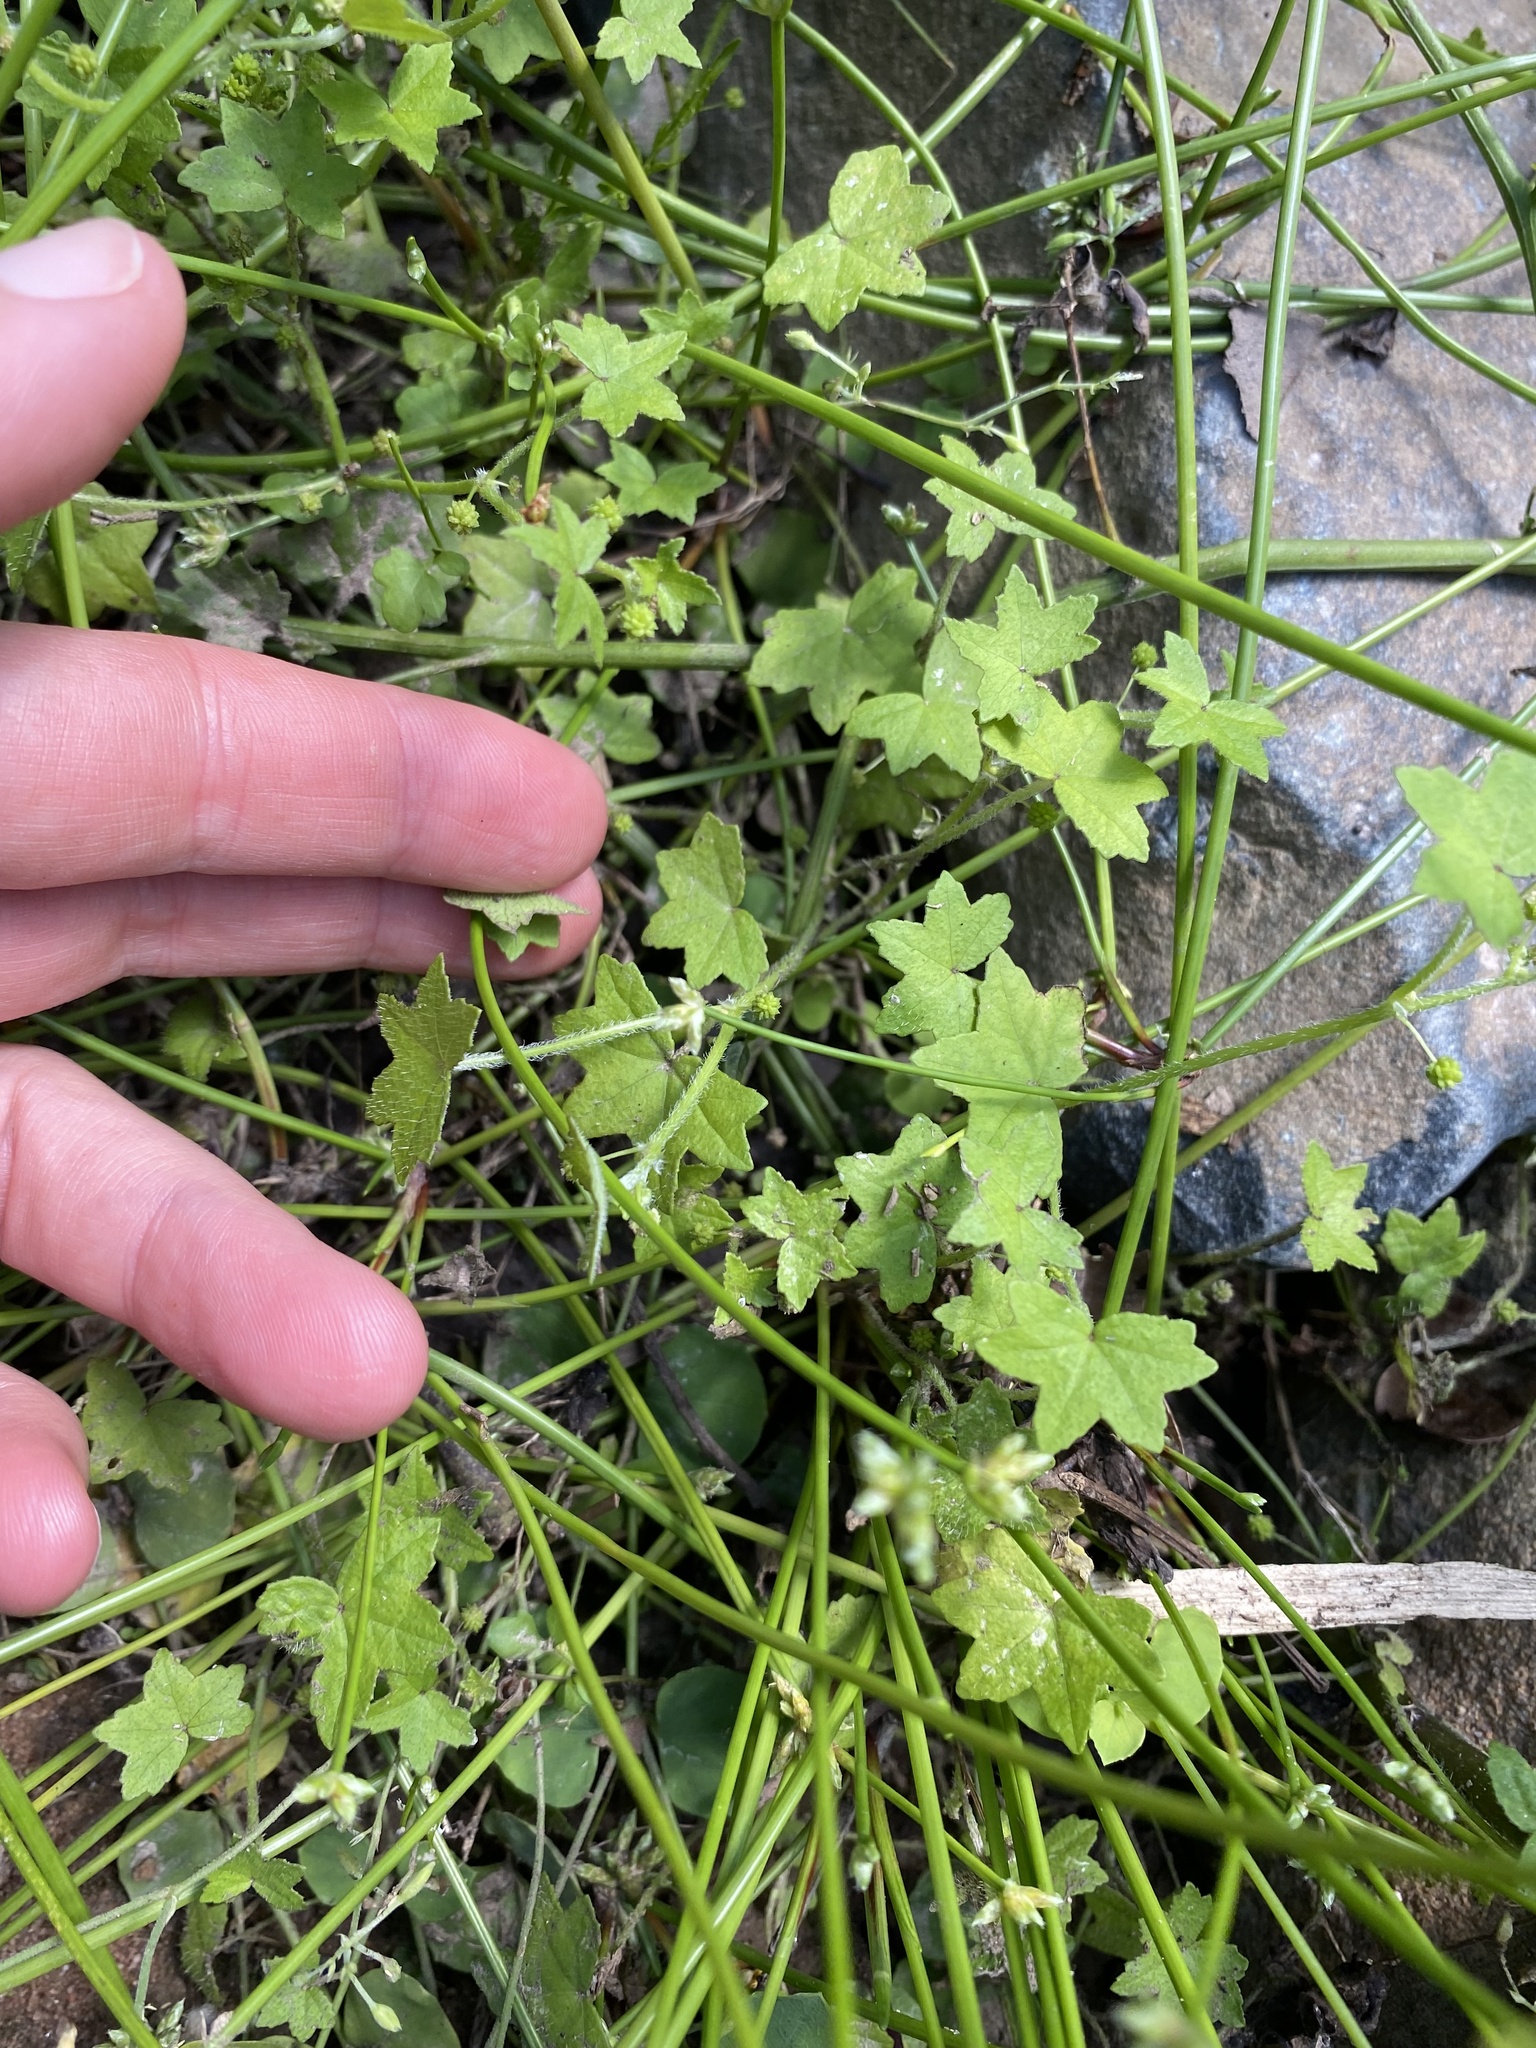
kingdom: Plantae
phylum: Tracheophyta
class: Magnoliopsida
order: Apiales
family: Araliaceae
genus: Hydrocotyle
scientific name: Hydrocotyle acutiloba
